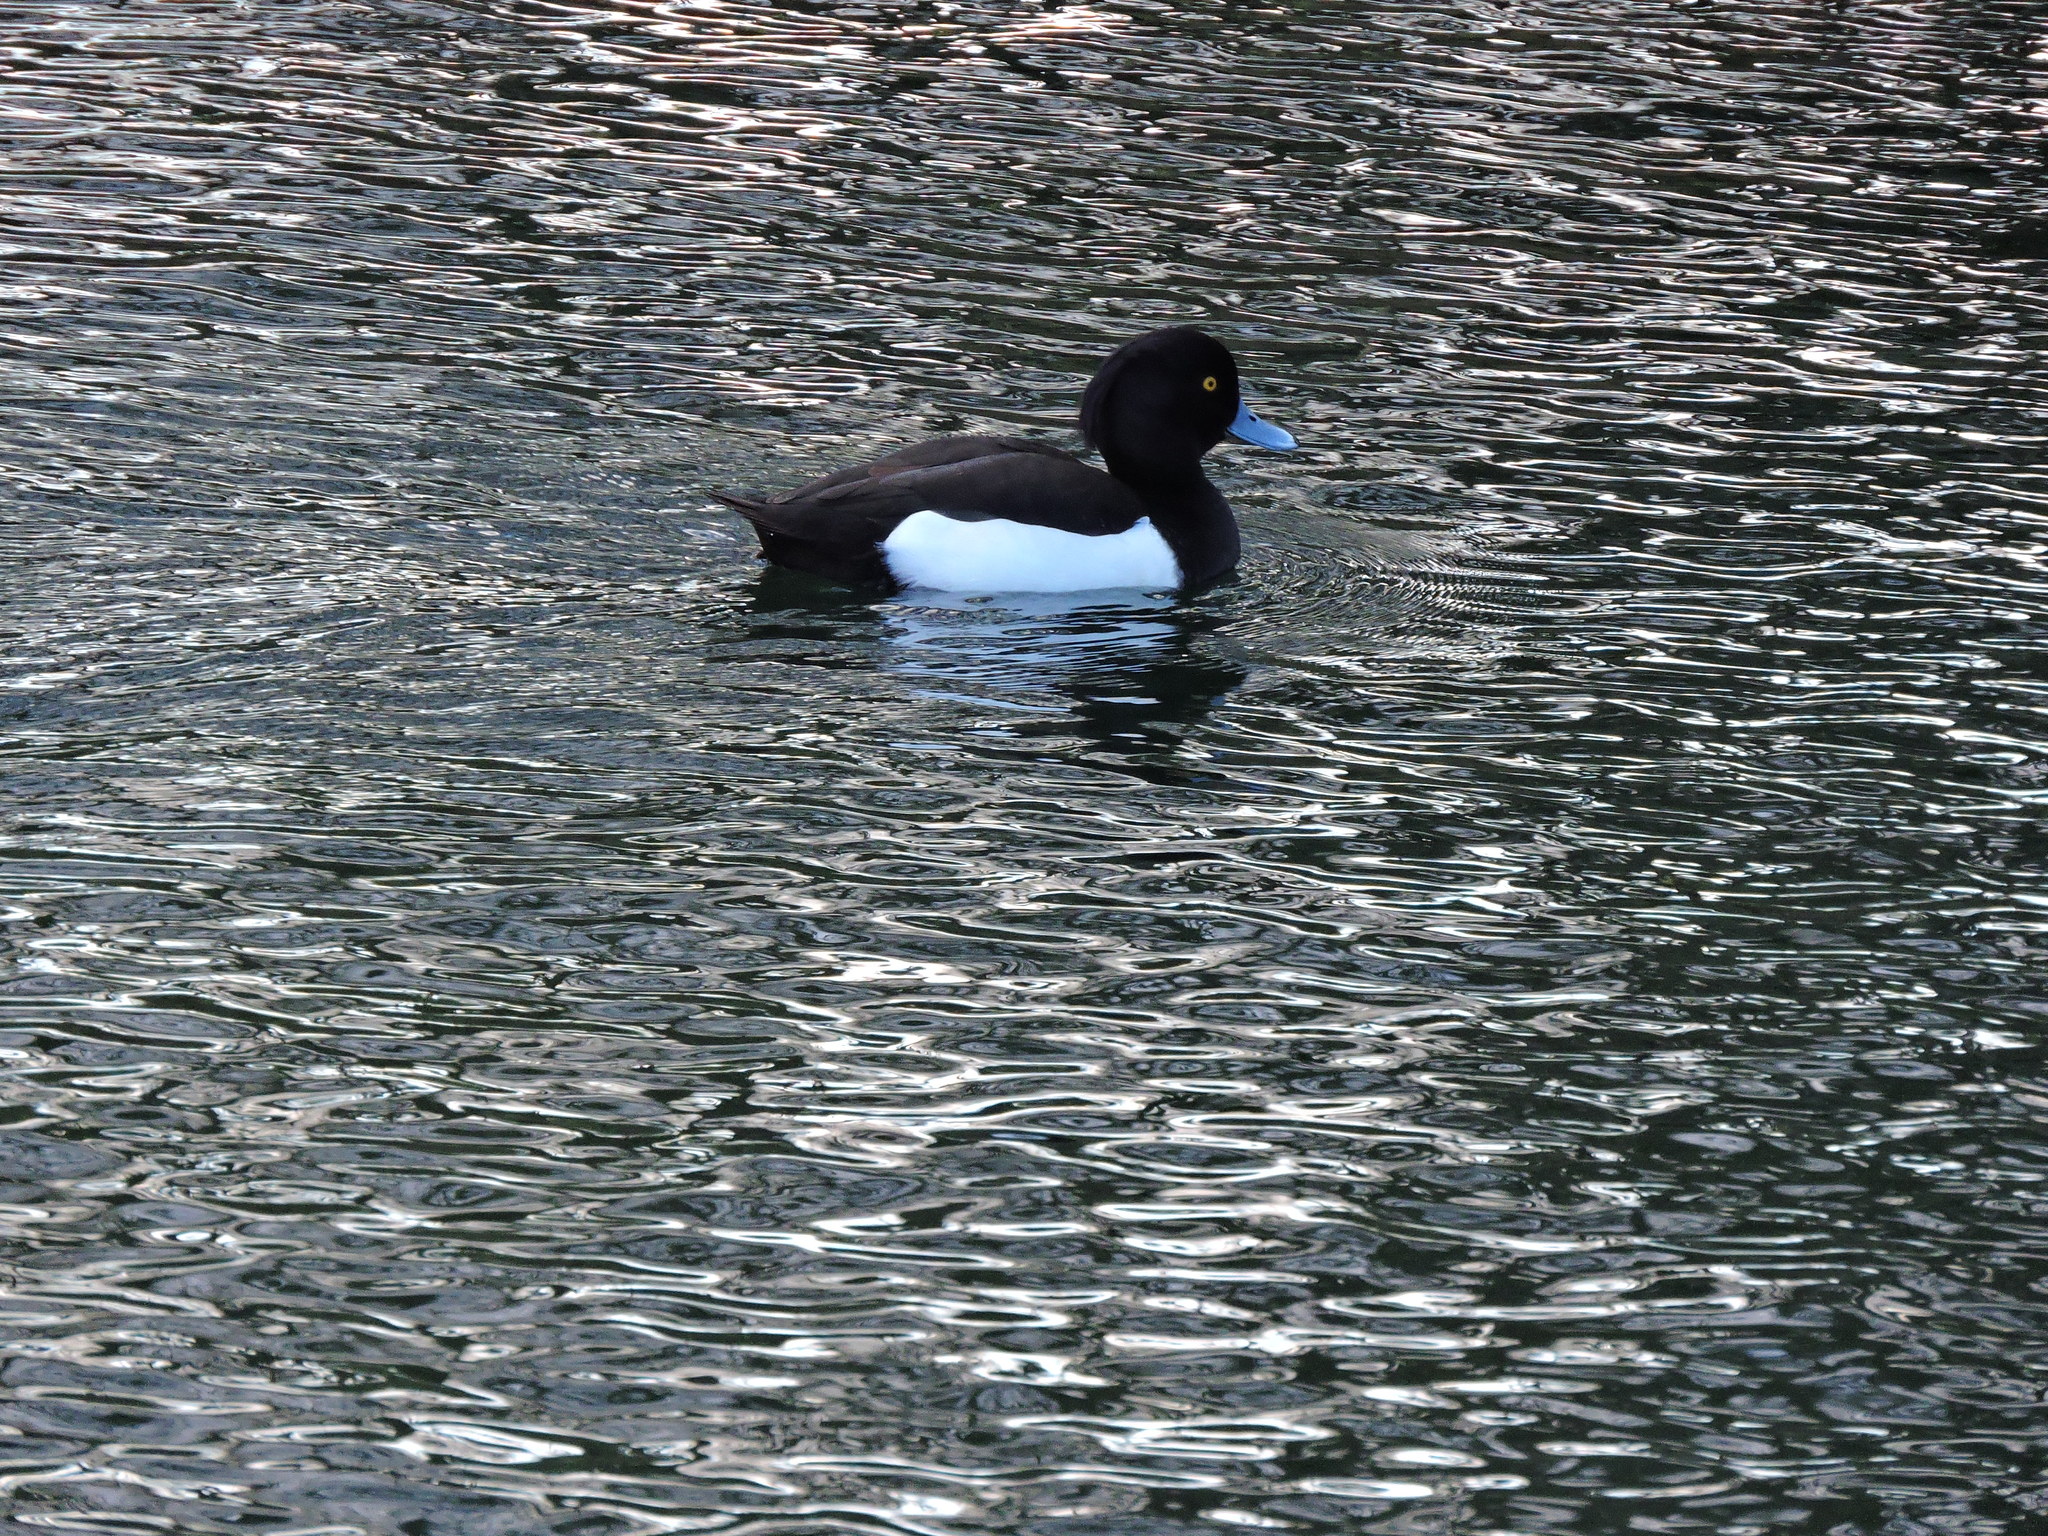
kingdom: Animalia
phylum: Chordata
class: Aves
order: Anseriformes
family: Anatidae
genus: Aythya
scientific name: Aythya fuligula
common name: Tufted duck
